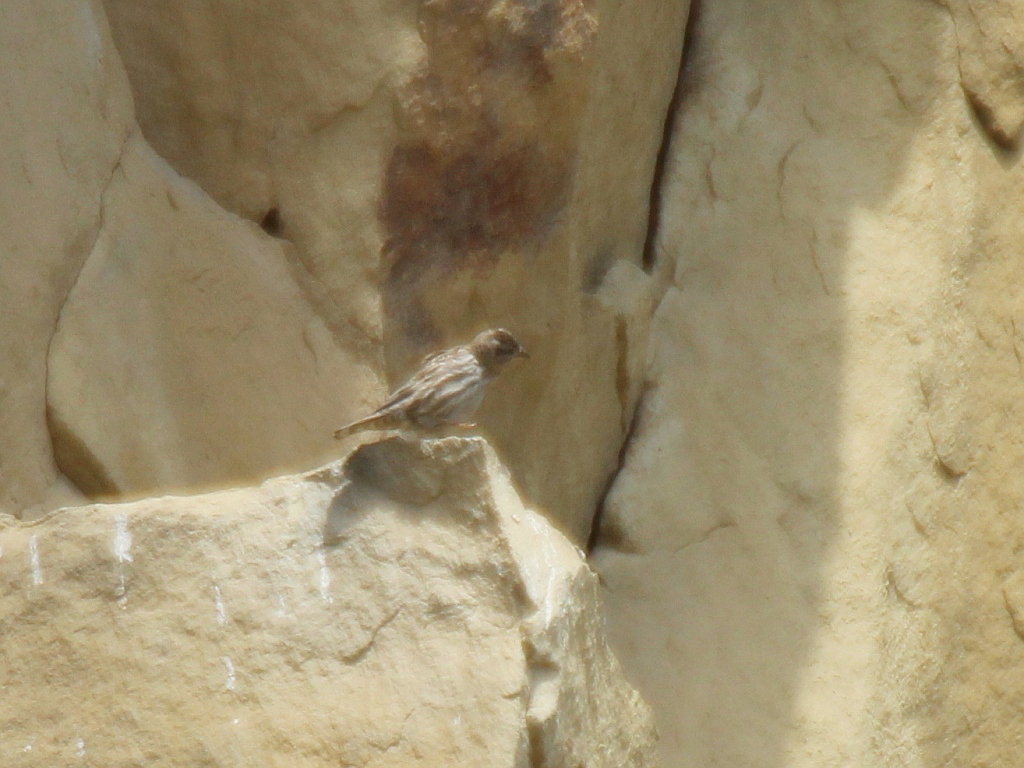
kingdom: Animalia
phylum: Chordata
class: Aves
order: Passeriformes
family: Passeridae
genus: Petronia
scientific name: Petronia petronia
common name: Rock sparrow
